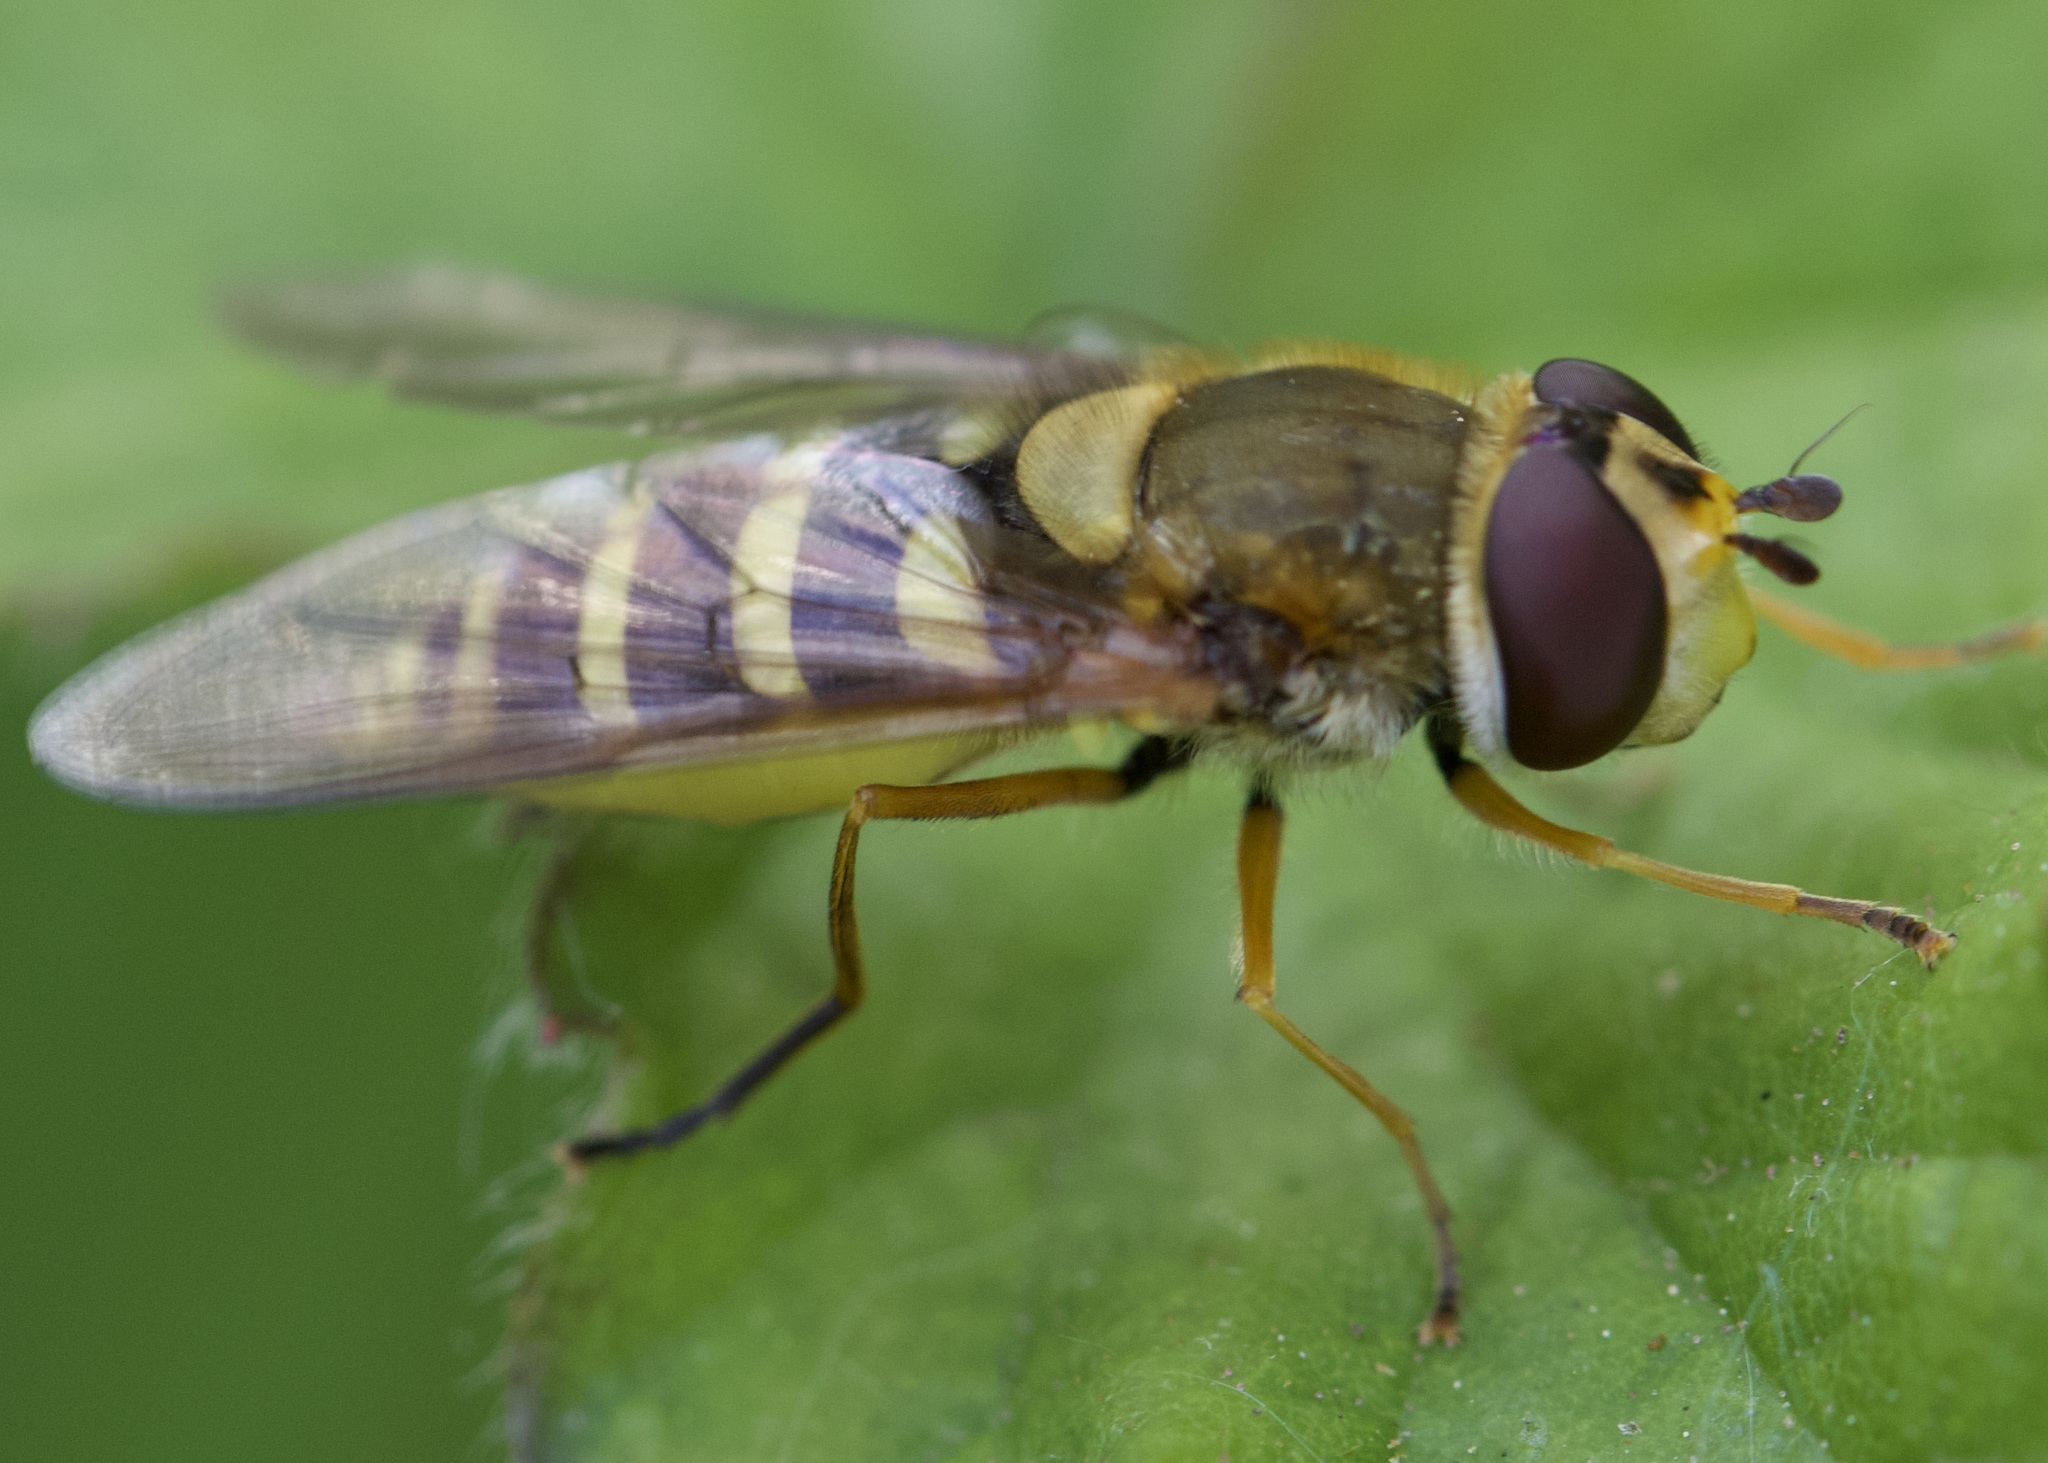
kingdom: Animalia
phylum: Arthropoda
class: Insecta
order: Diptera
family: Syrphidae
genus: Syrphus
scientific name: Syrphus ribesii
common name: Common flower fly
